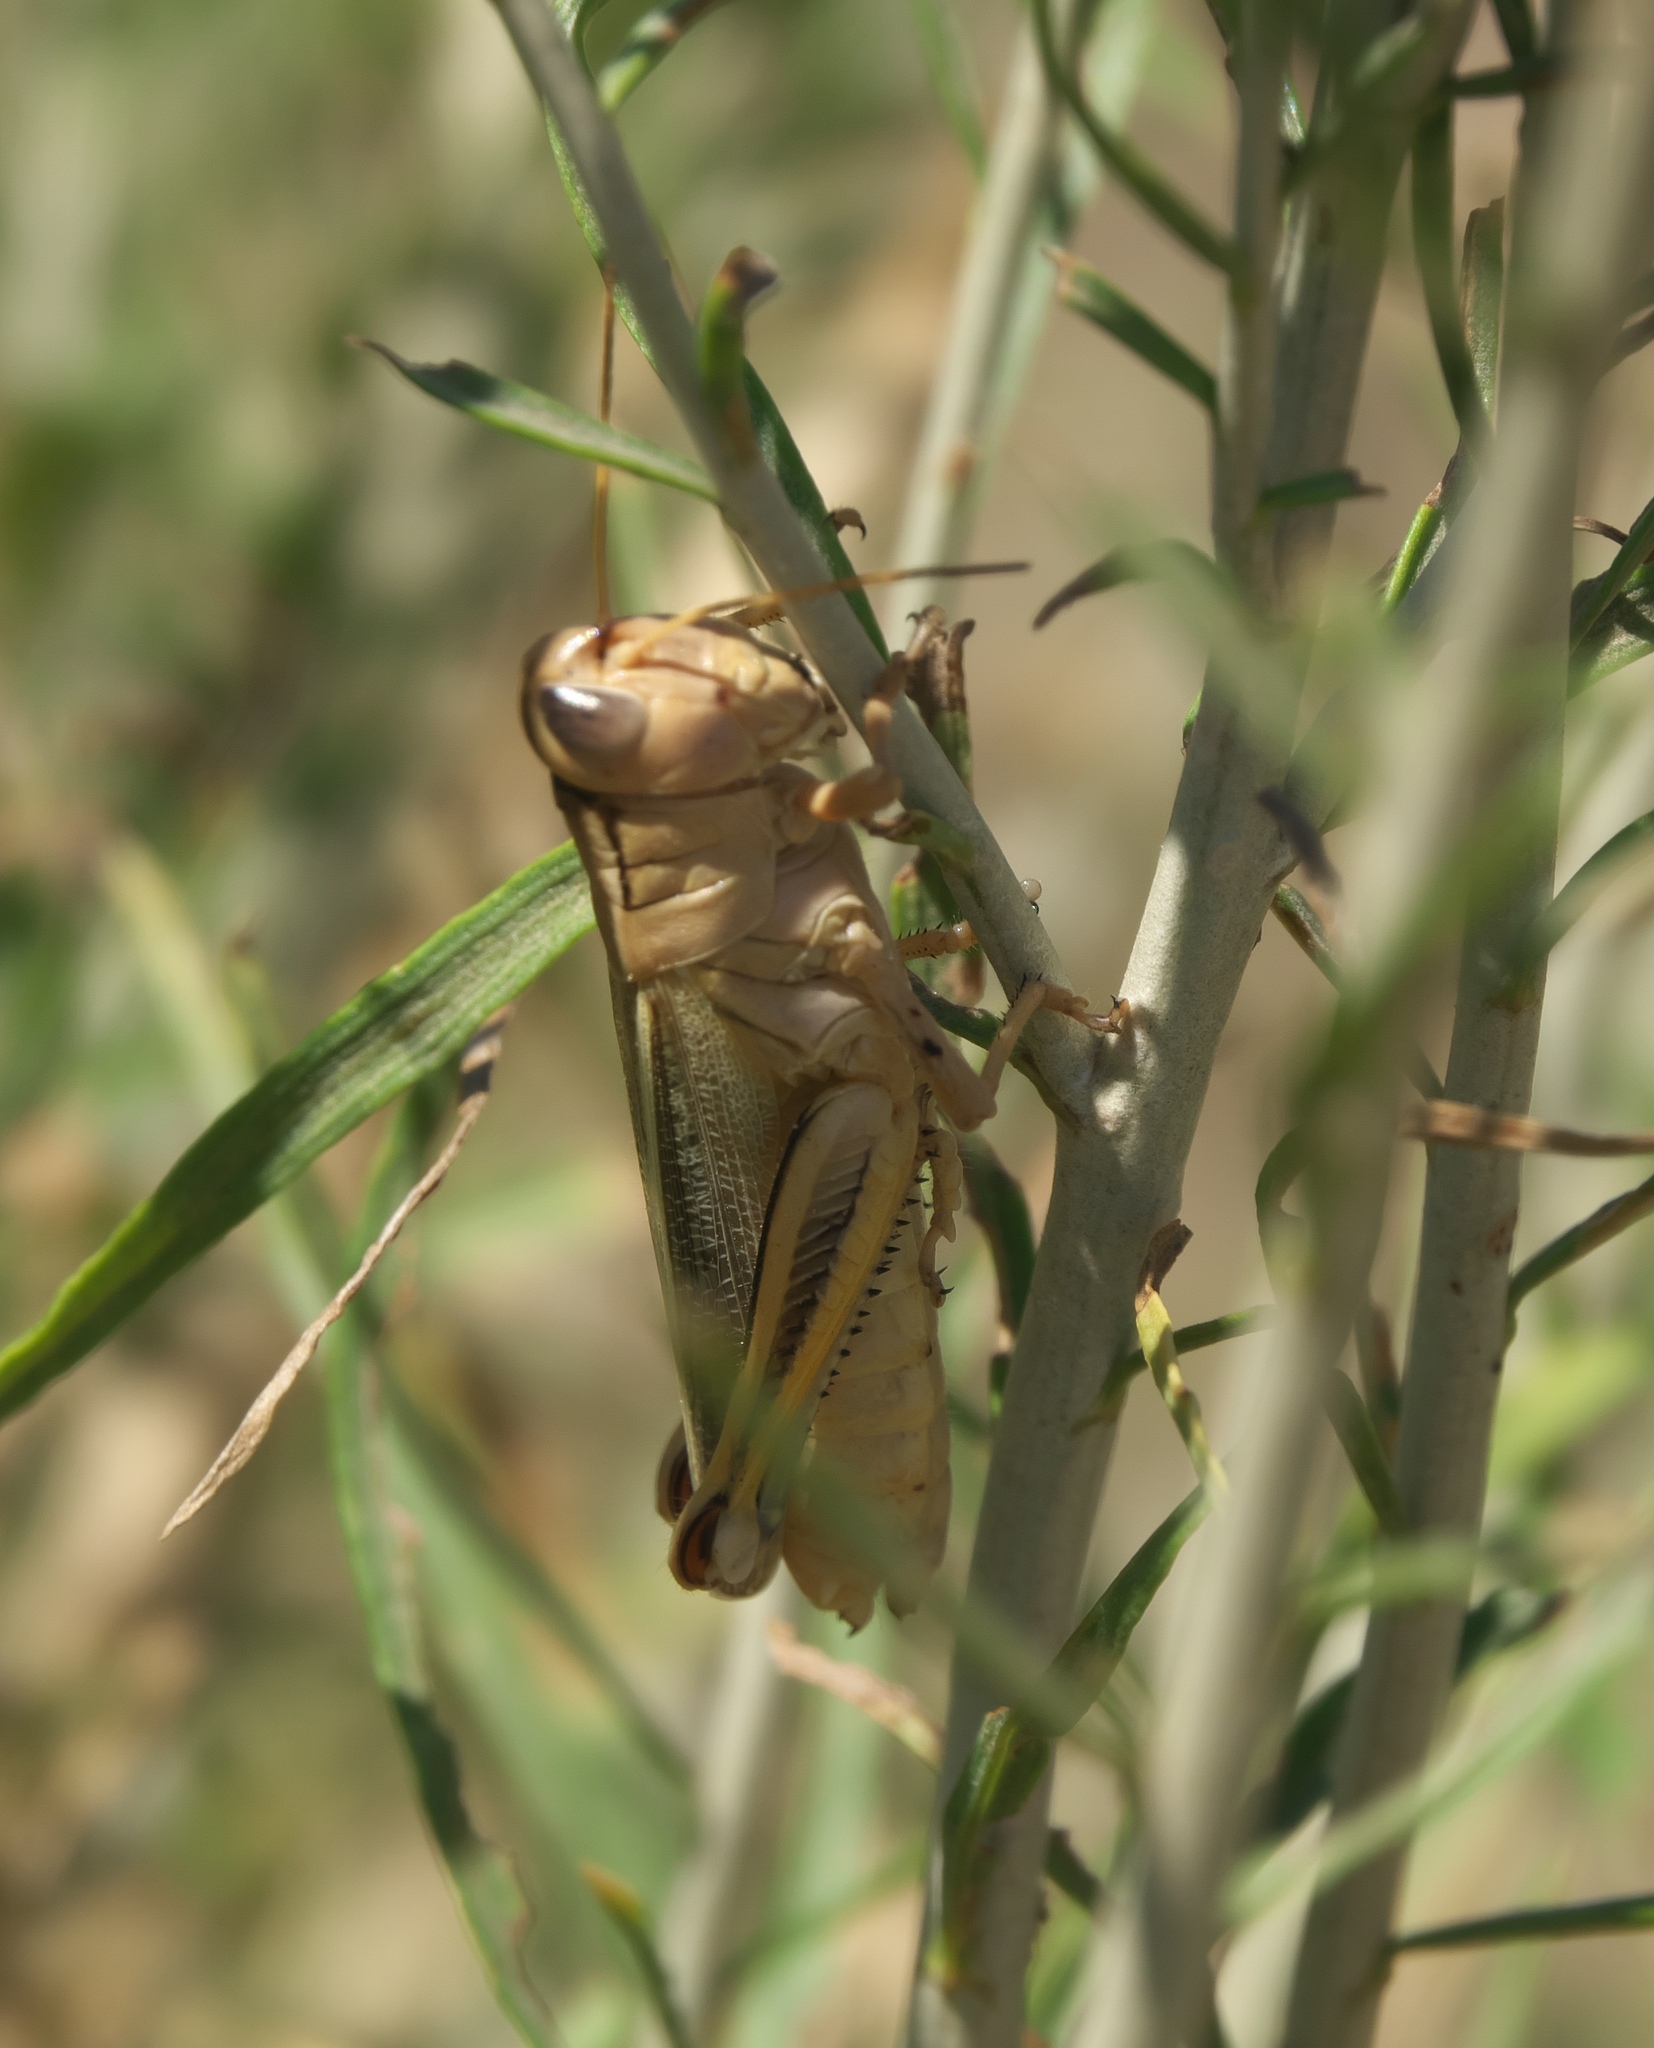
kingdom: Animalia
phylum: Arthropoda
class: Insecta
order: Orthoptera
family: Acrididae
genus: Melanoplus
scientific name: Melanoplus bivittatus
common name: Two-striped grasshopper
